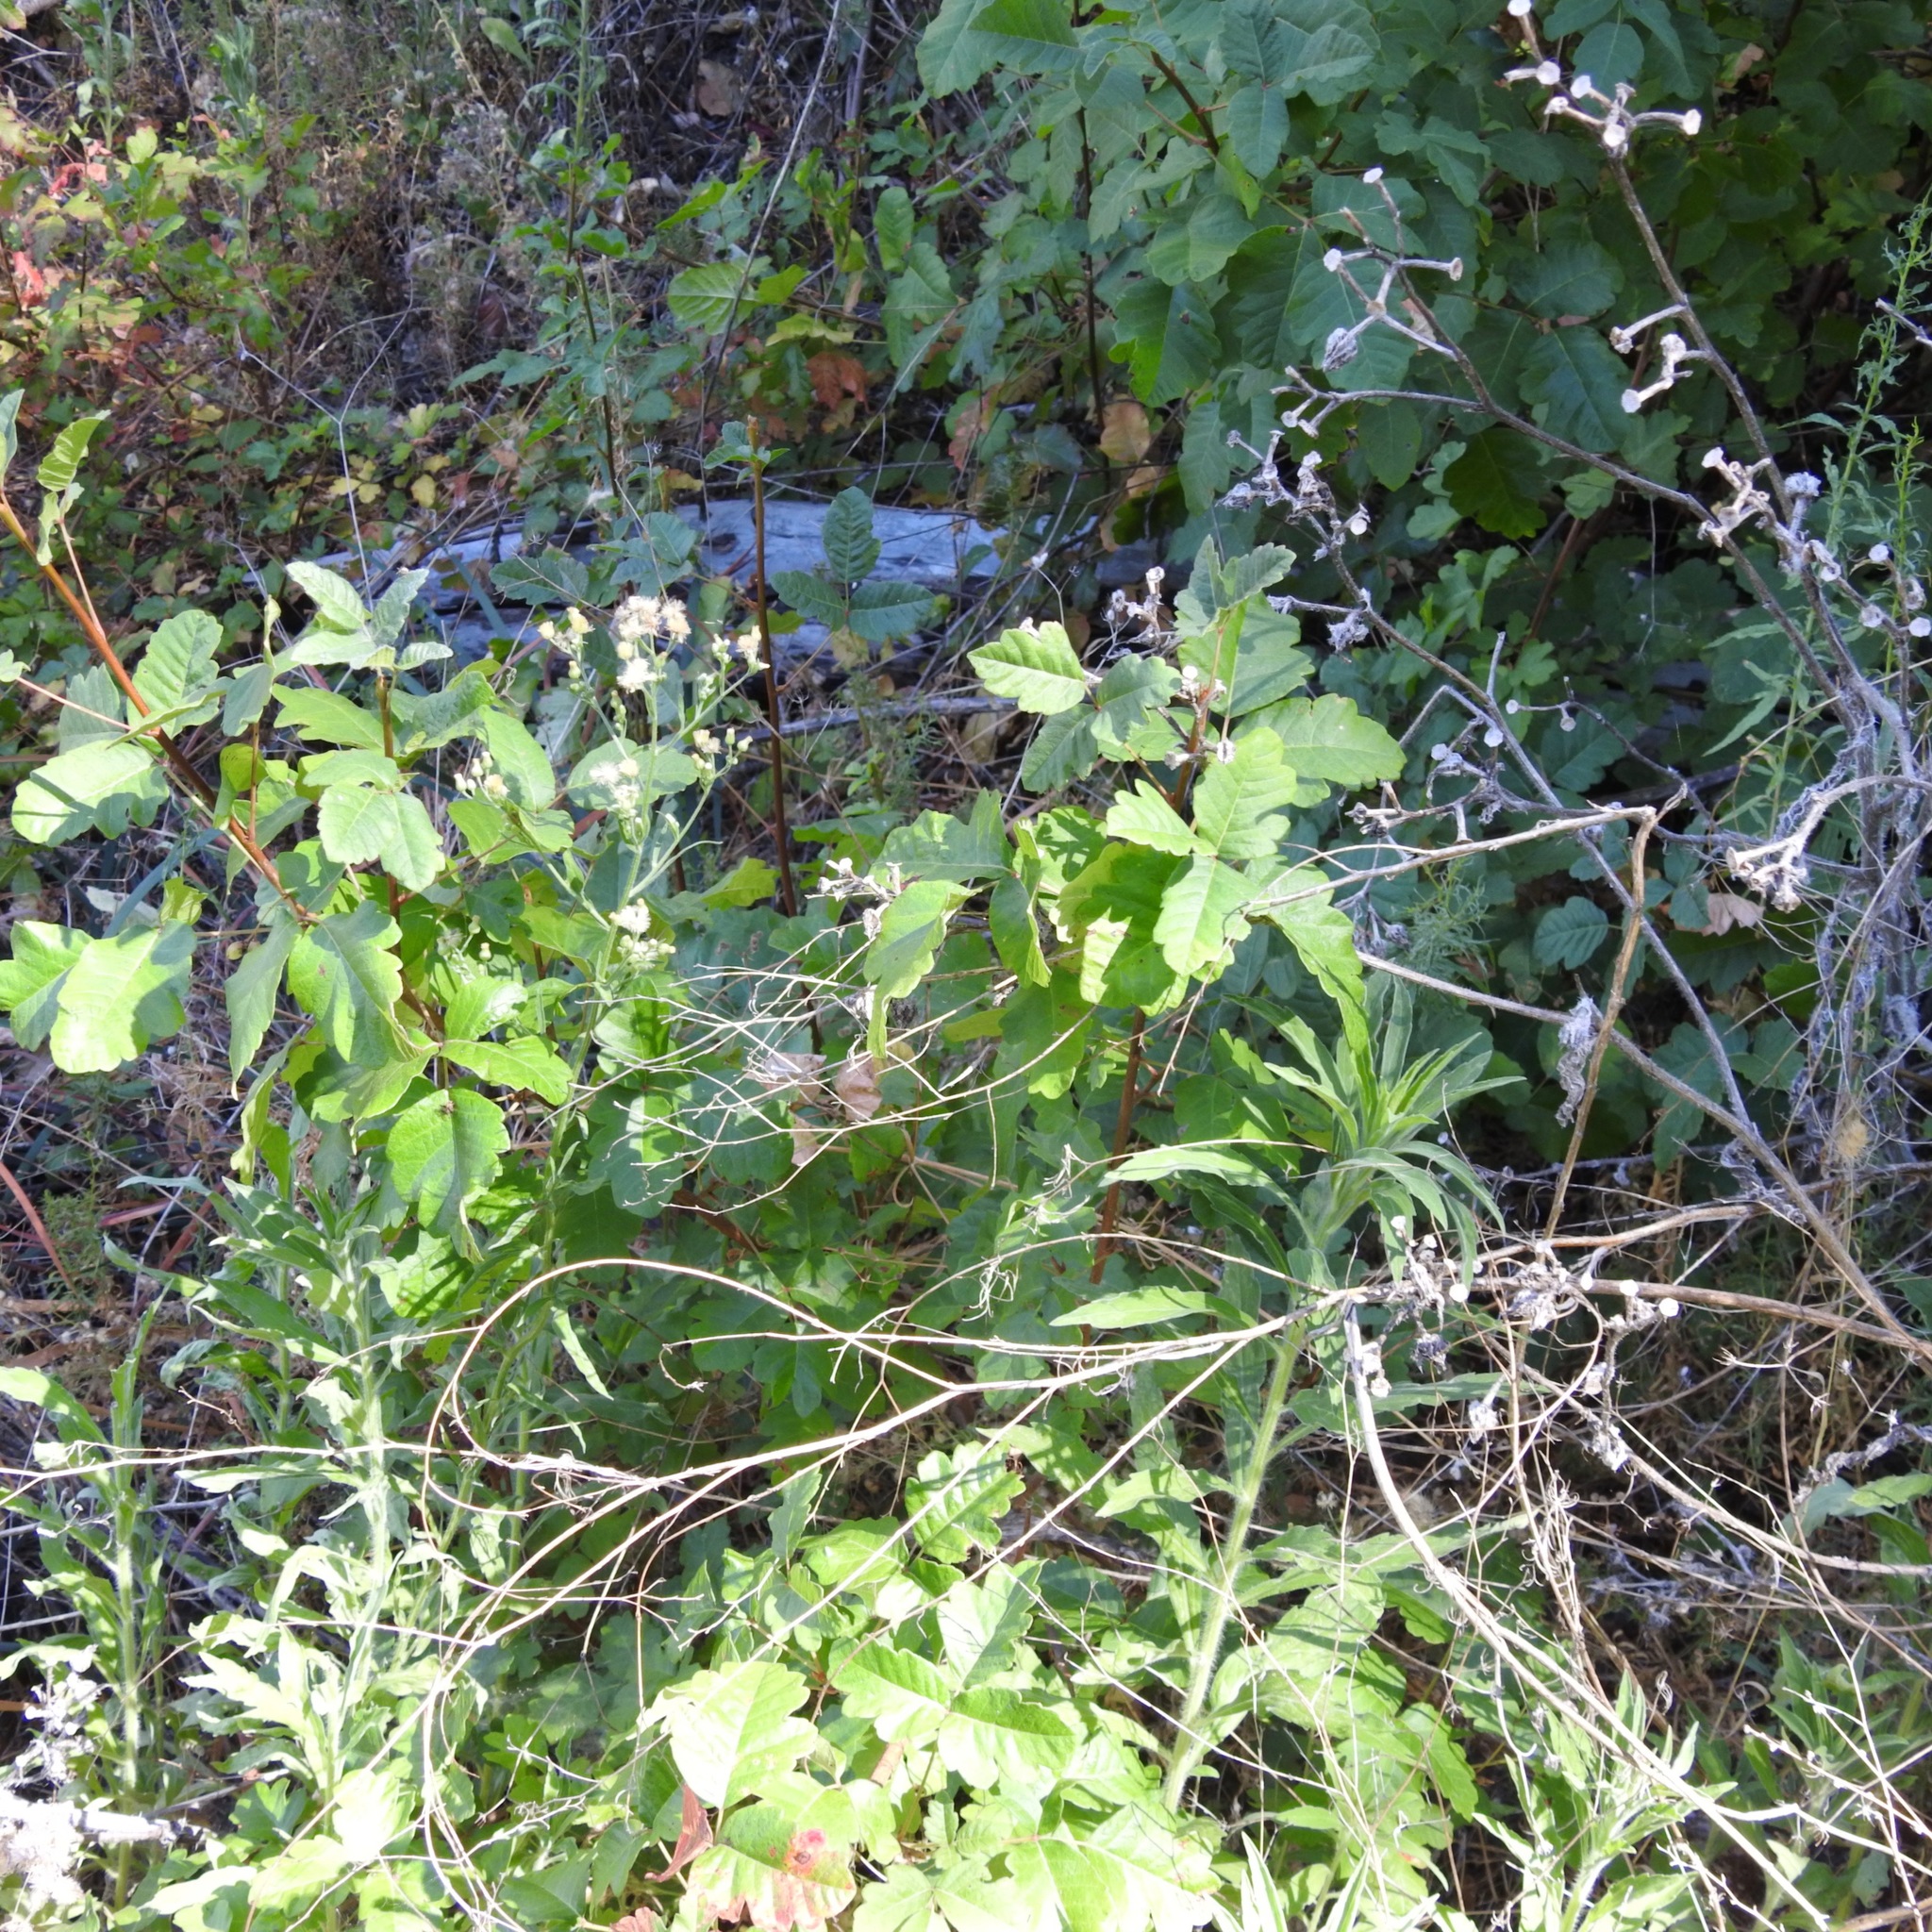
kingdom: Plantae
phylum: Tracheophyta
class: Magnoliopsida
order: Sapindales
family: Anacardiaceae
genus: Toxicodendron
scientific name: Toxicodendron diversilobum
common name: Pacific poison-oak
